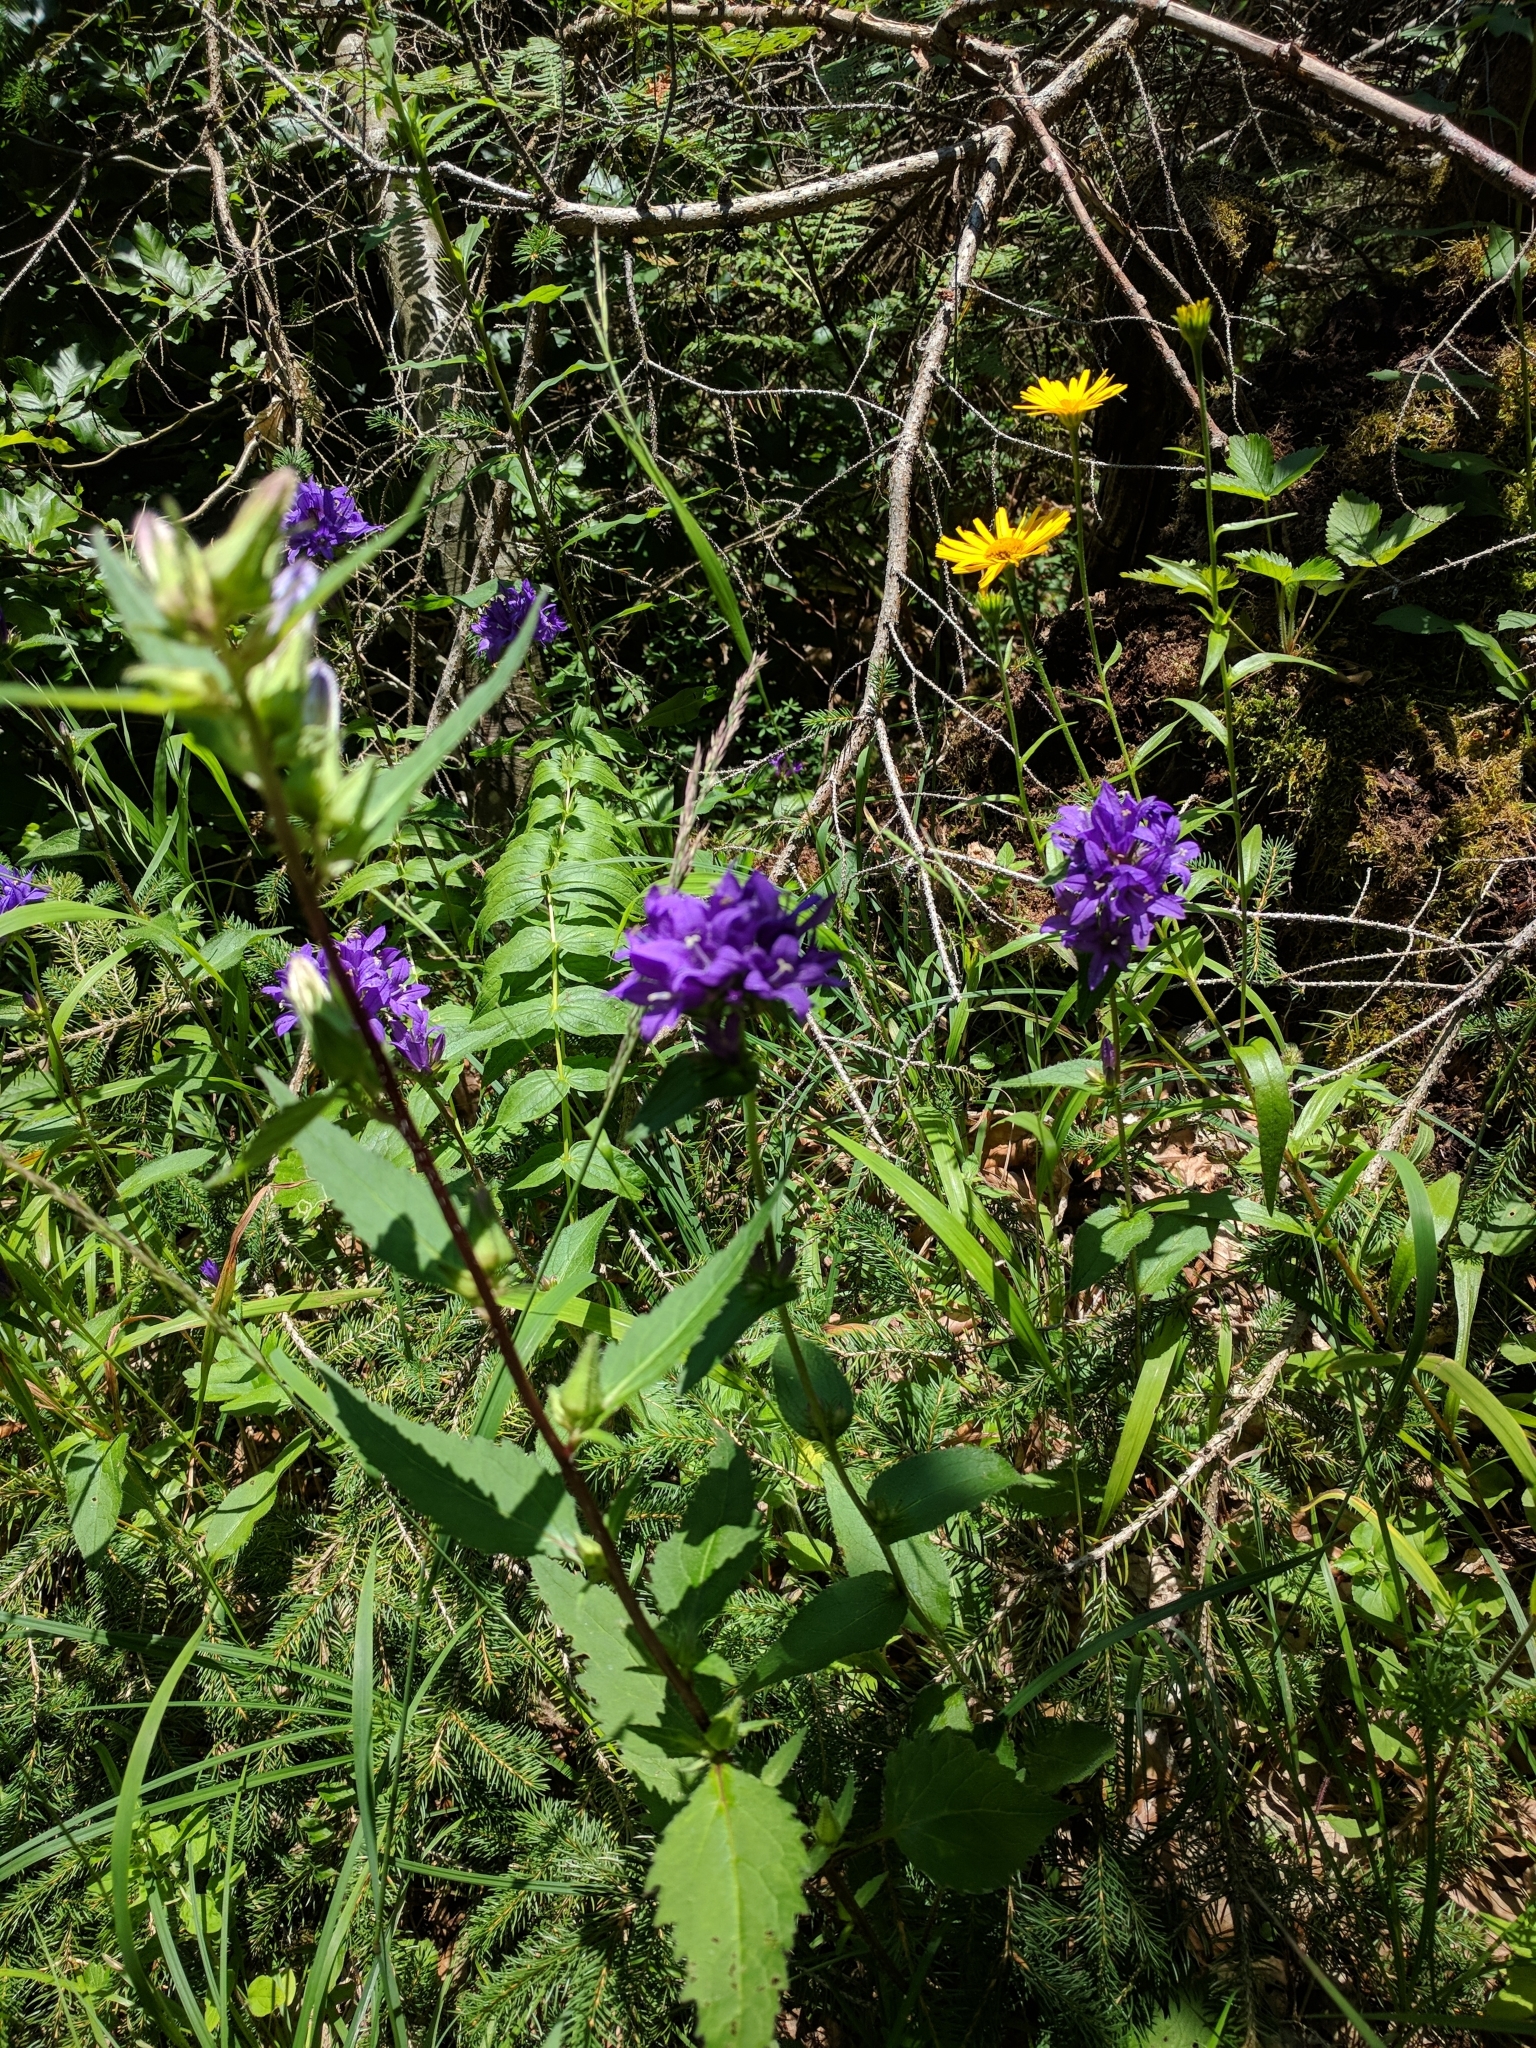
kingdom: Plantae
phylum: Tracheophyta
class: Magnoliopsida
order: Asterales
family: Campanulaceae
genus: Campanula
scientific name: Campanula glomerata
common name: Clustered bellflower
